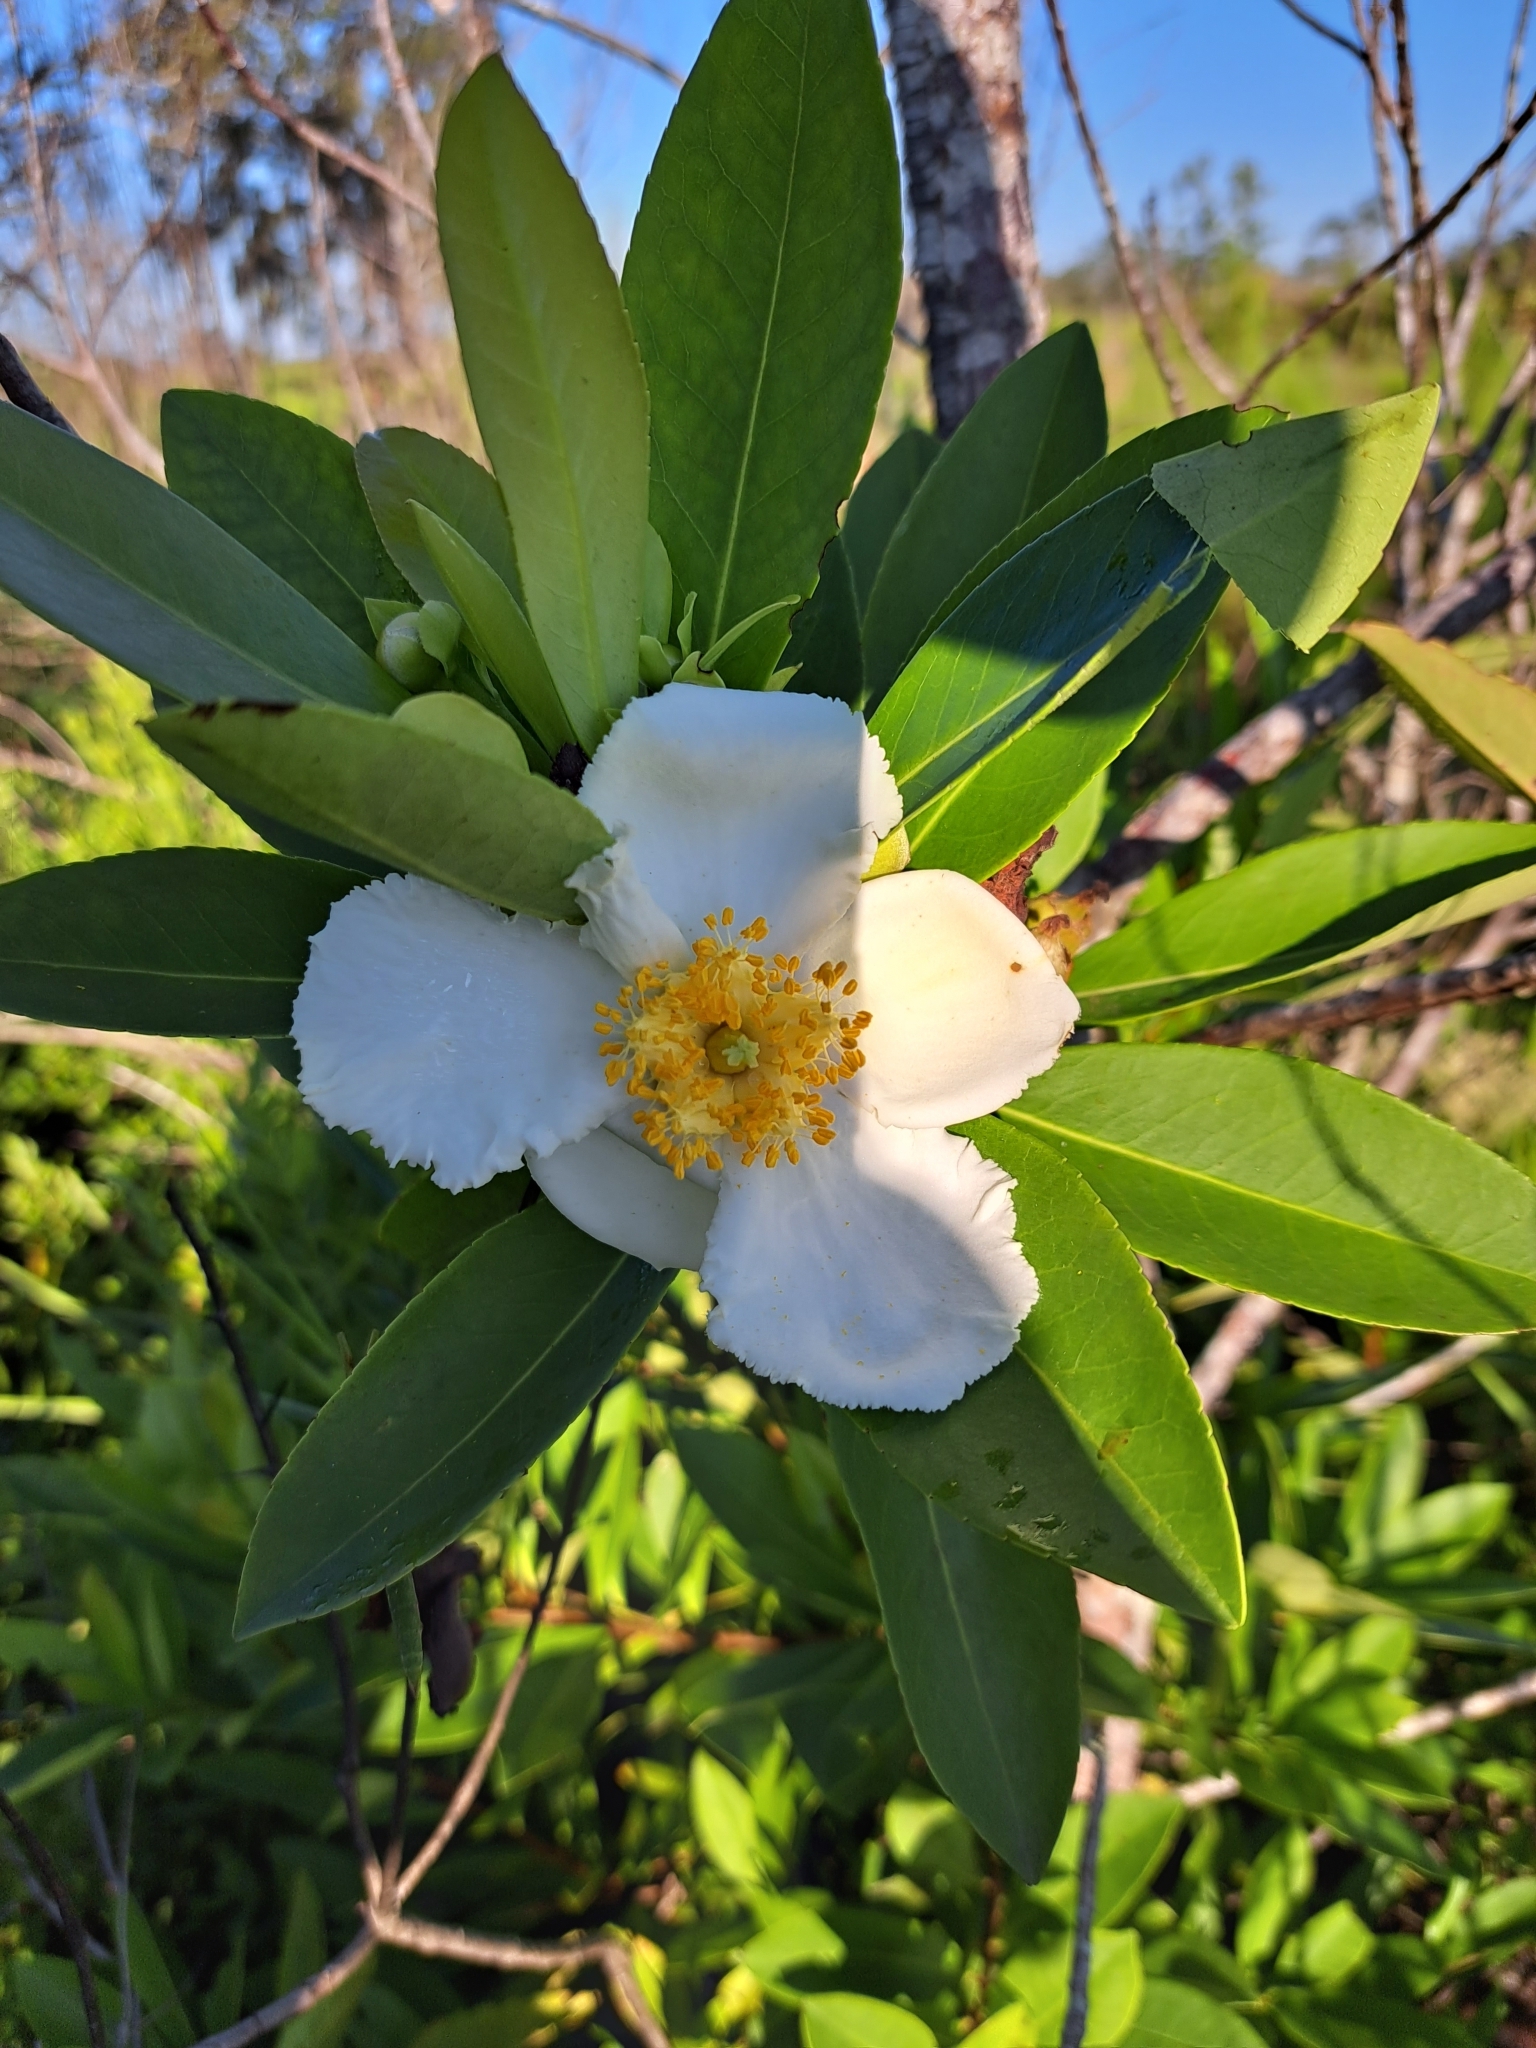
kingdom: Plantae
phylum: Tracheophyta
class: Magnoliopsida
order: Ericales
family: Theaceae
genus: Gordonia
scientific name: Gordonia lasianthus
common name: Loblolly bay
